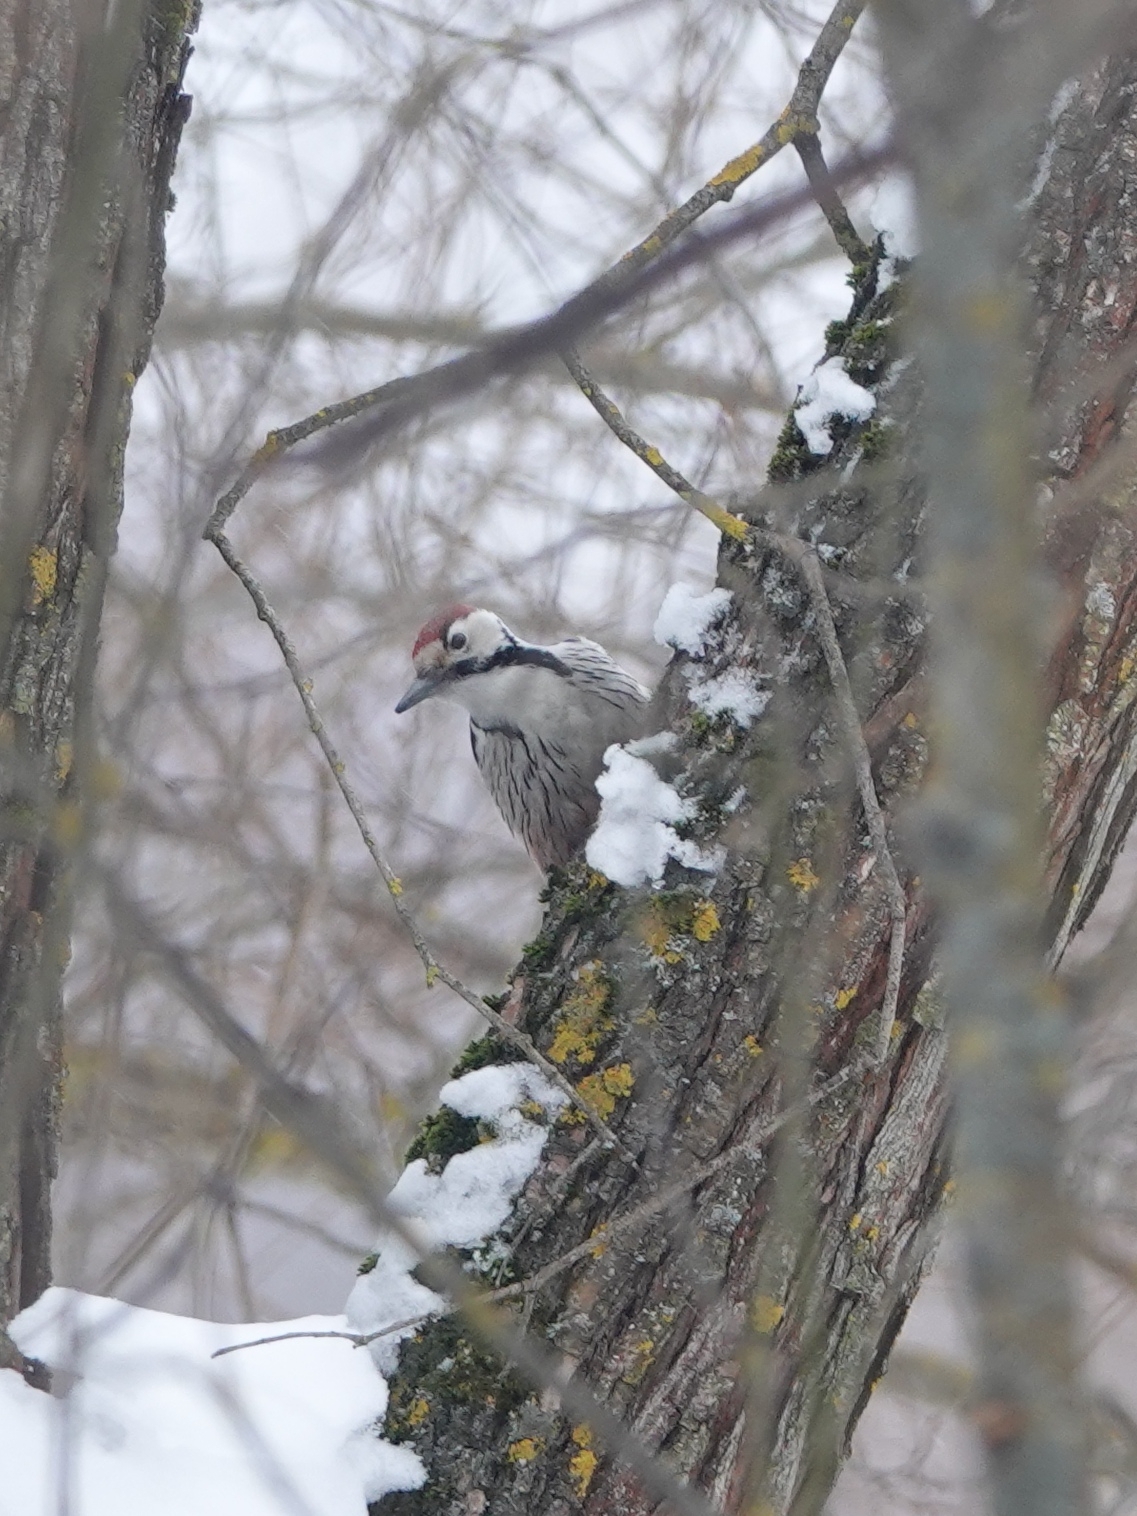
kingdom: Animalia
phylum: Chordata
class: Aves
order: Piciformes
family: Picidae
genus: Dendrocopos
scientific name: Dendrocopos leucotos
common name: White-backed woodpecker
